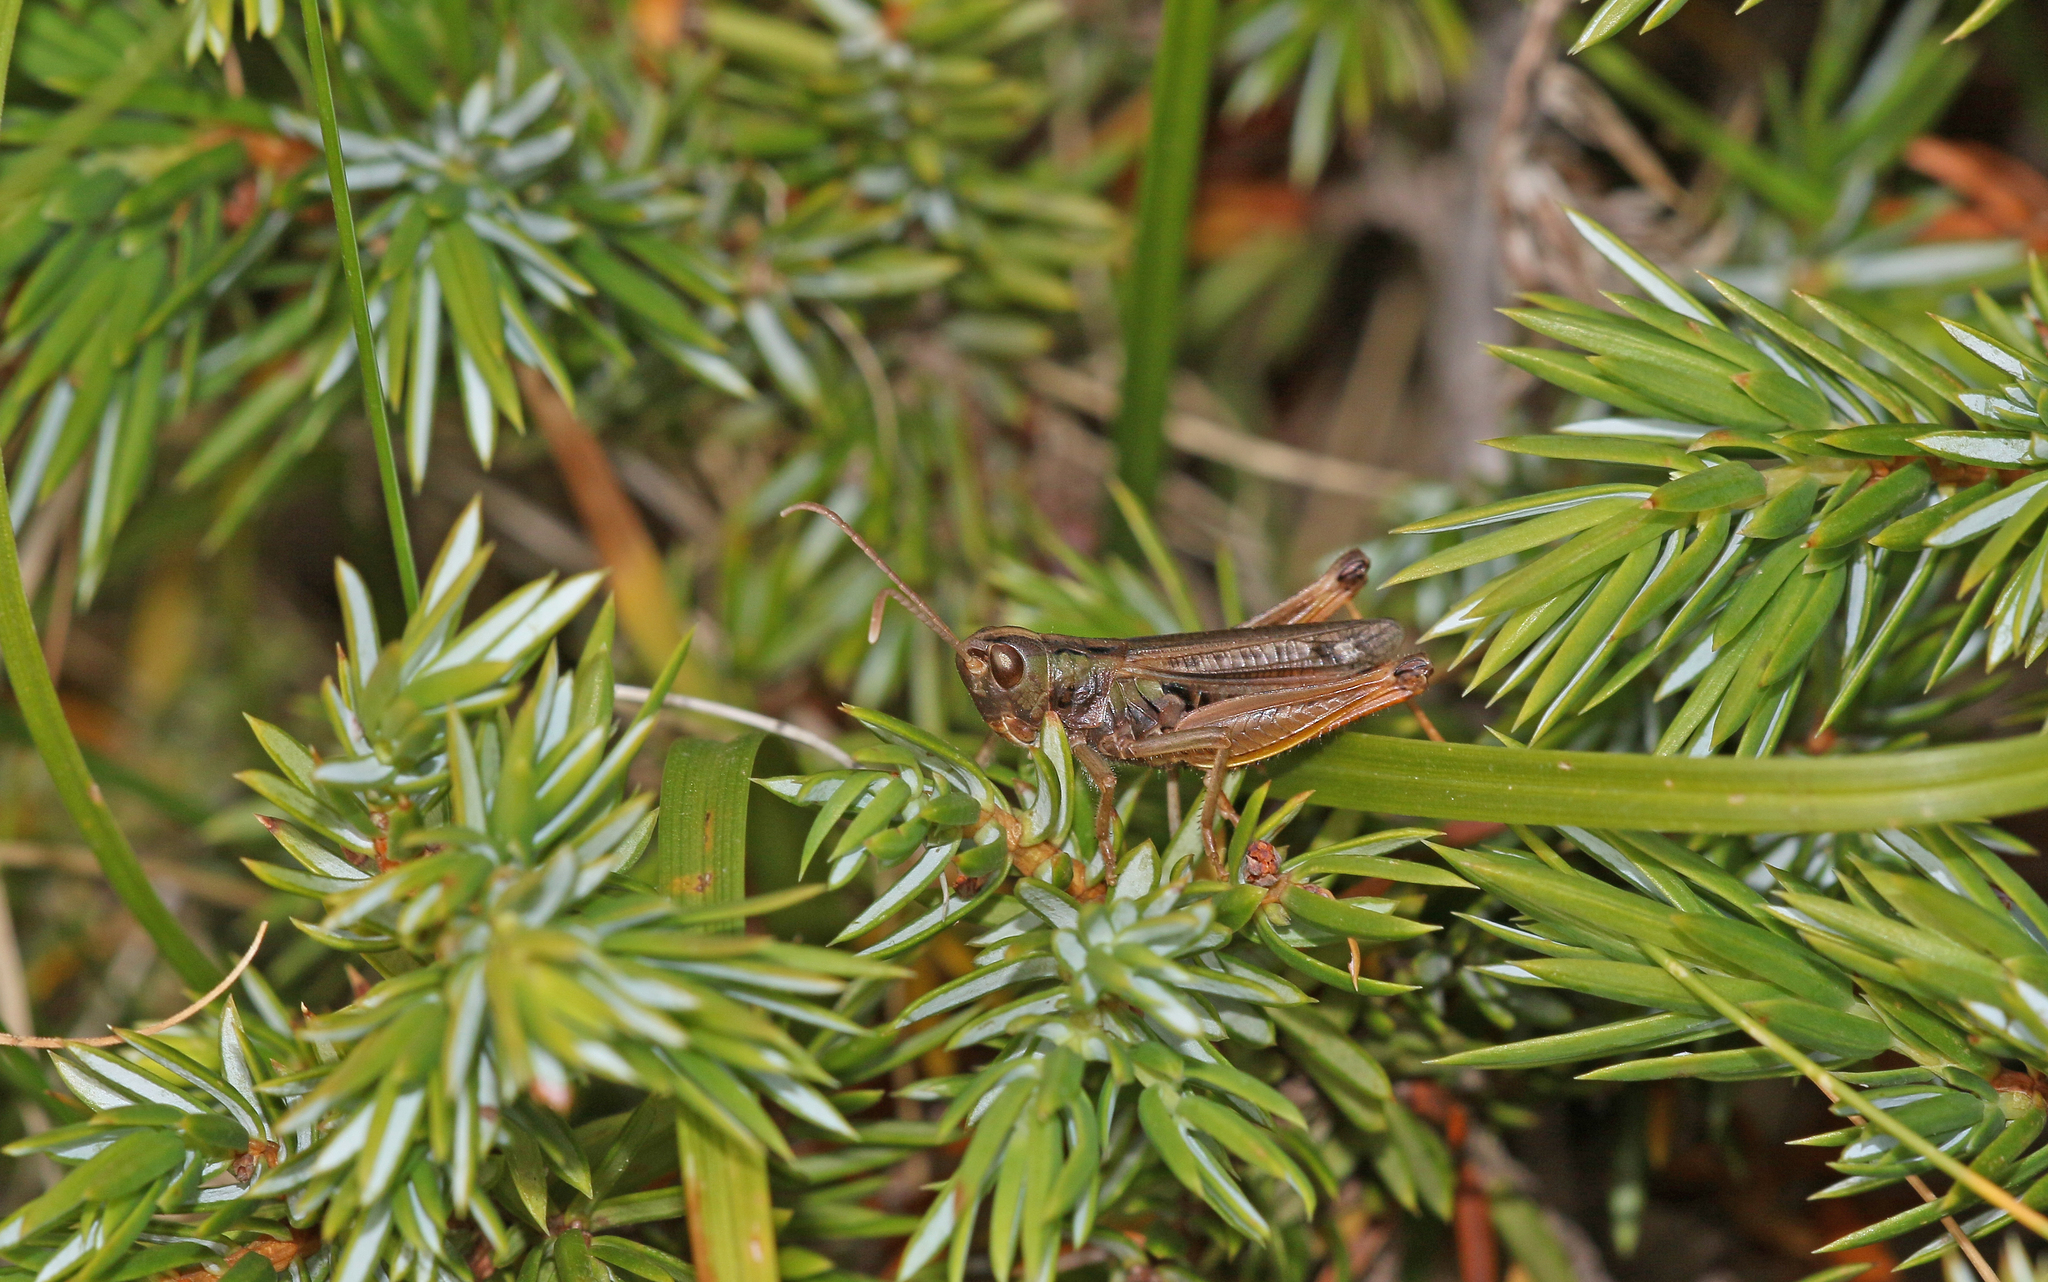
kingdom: Animalia
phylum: Arthropoda
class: Insecta
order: Orthoptera
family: Acrididae
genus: Stenobothrus
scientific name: Stenobothrus nigromaculatus
